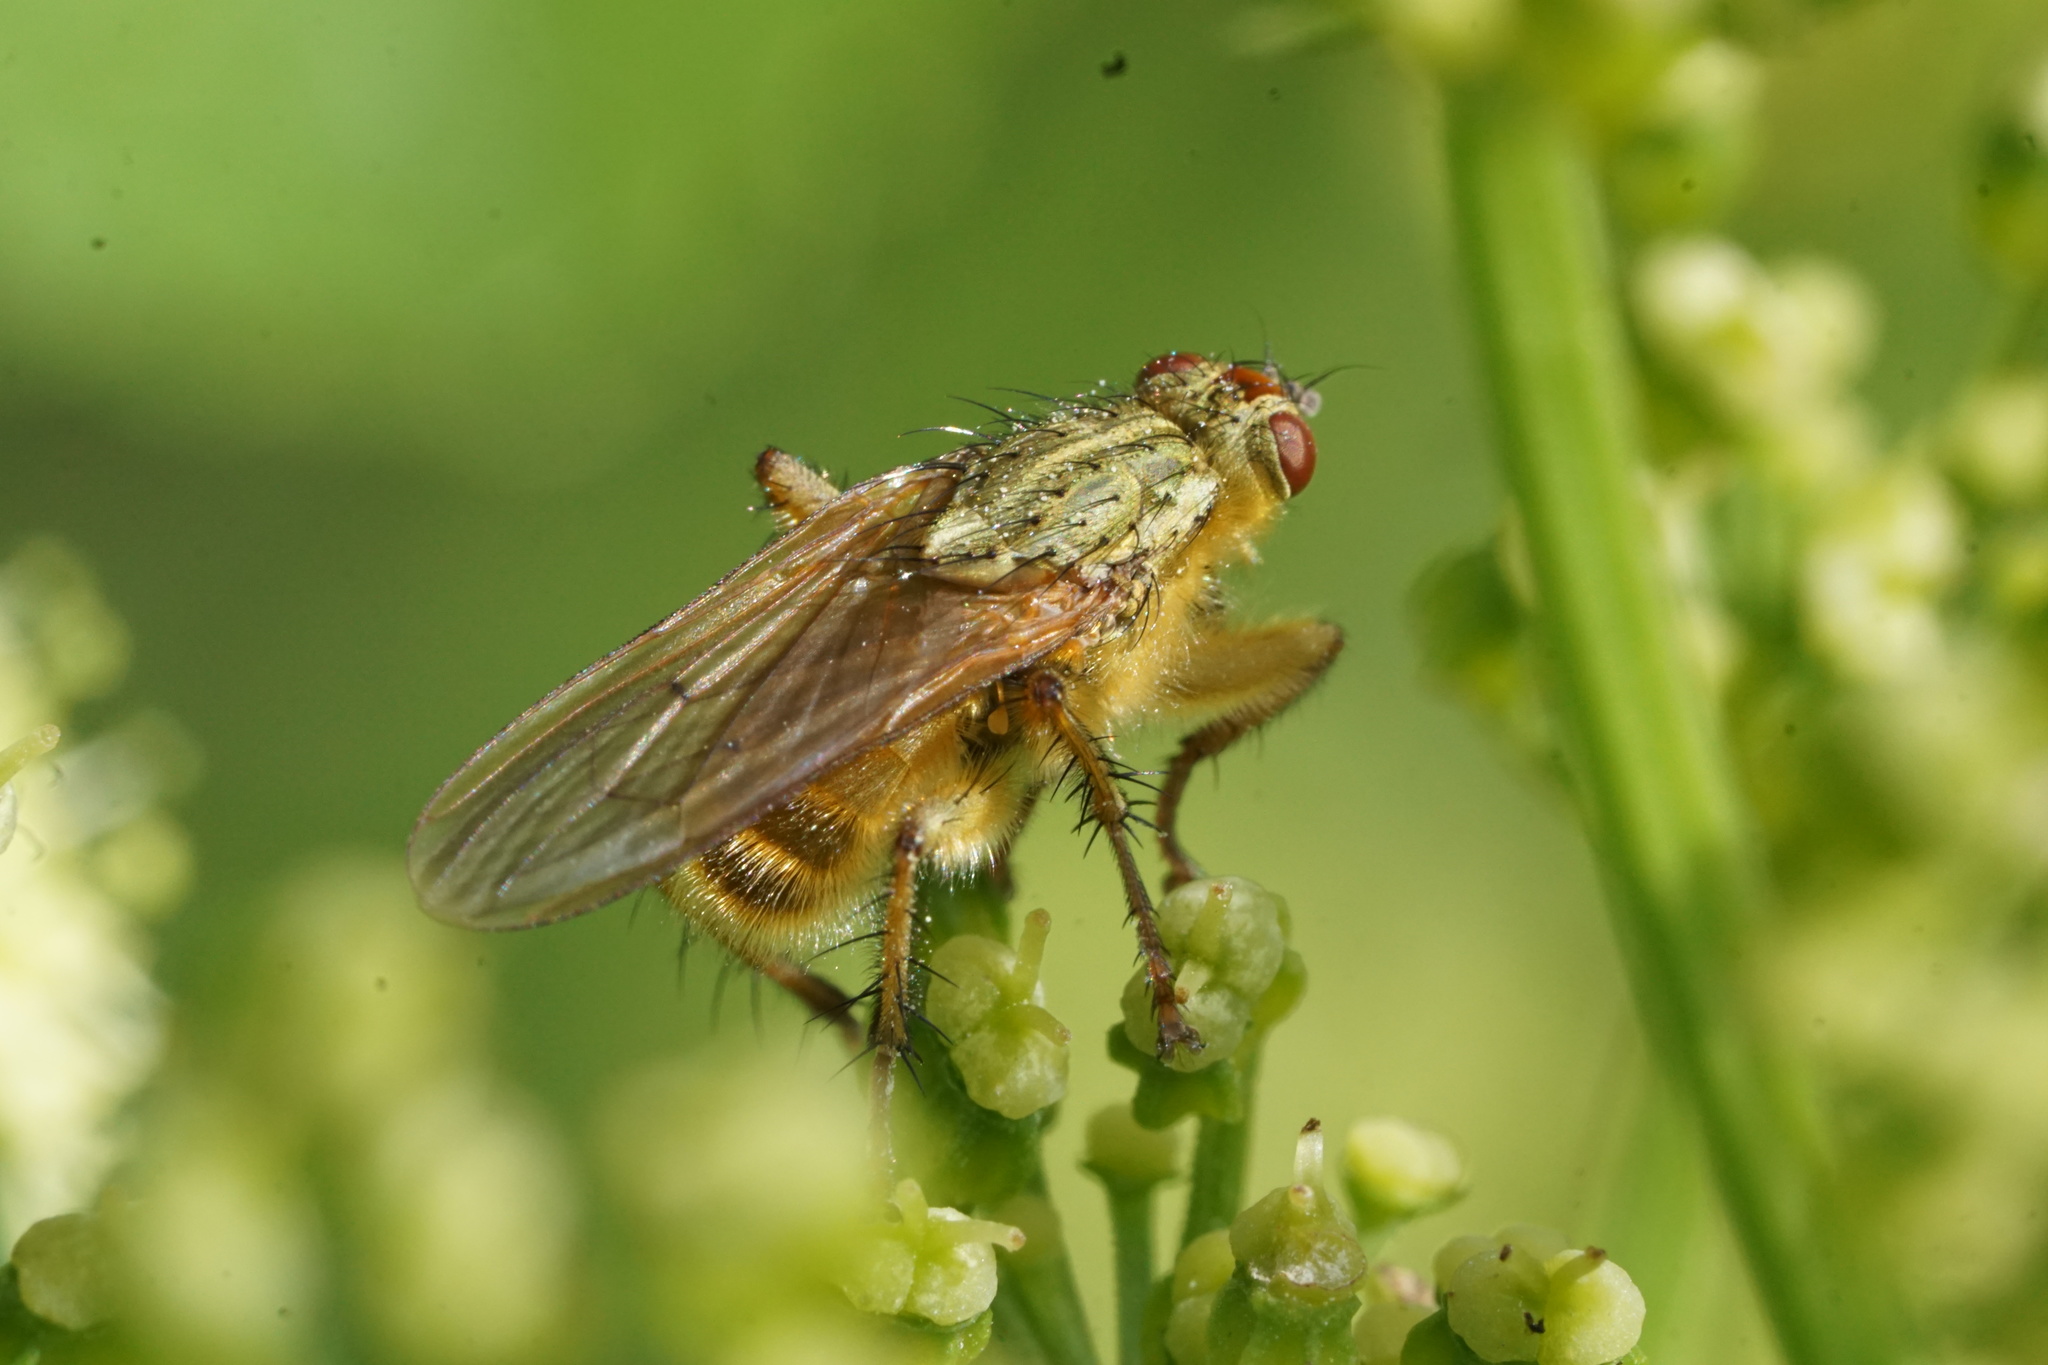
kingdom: Animalia
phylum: Arthropoda
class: Insecta
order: Diptera
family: Scathophagidae
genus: Scathophaga
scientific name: Scathophaga stercoraria
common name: Yellow dung fly
